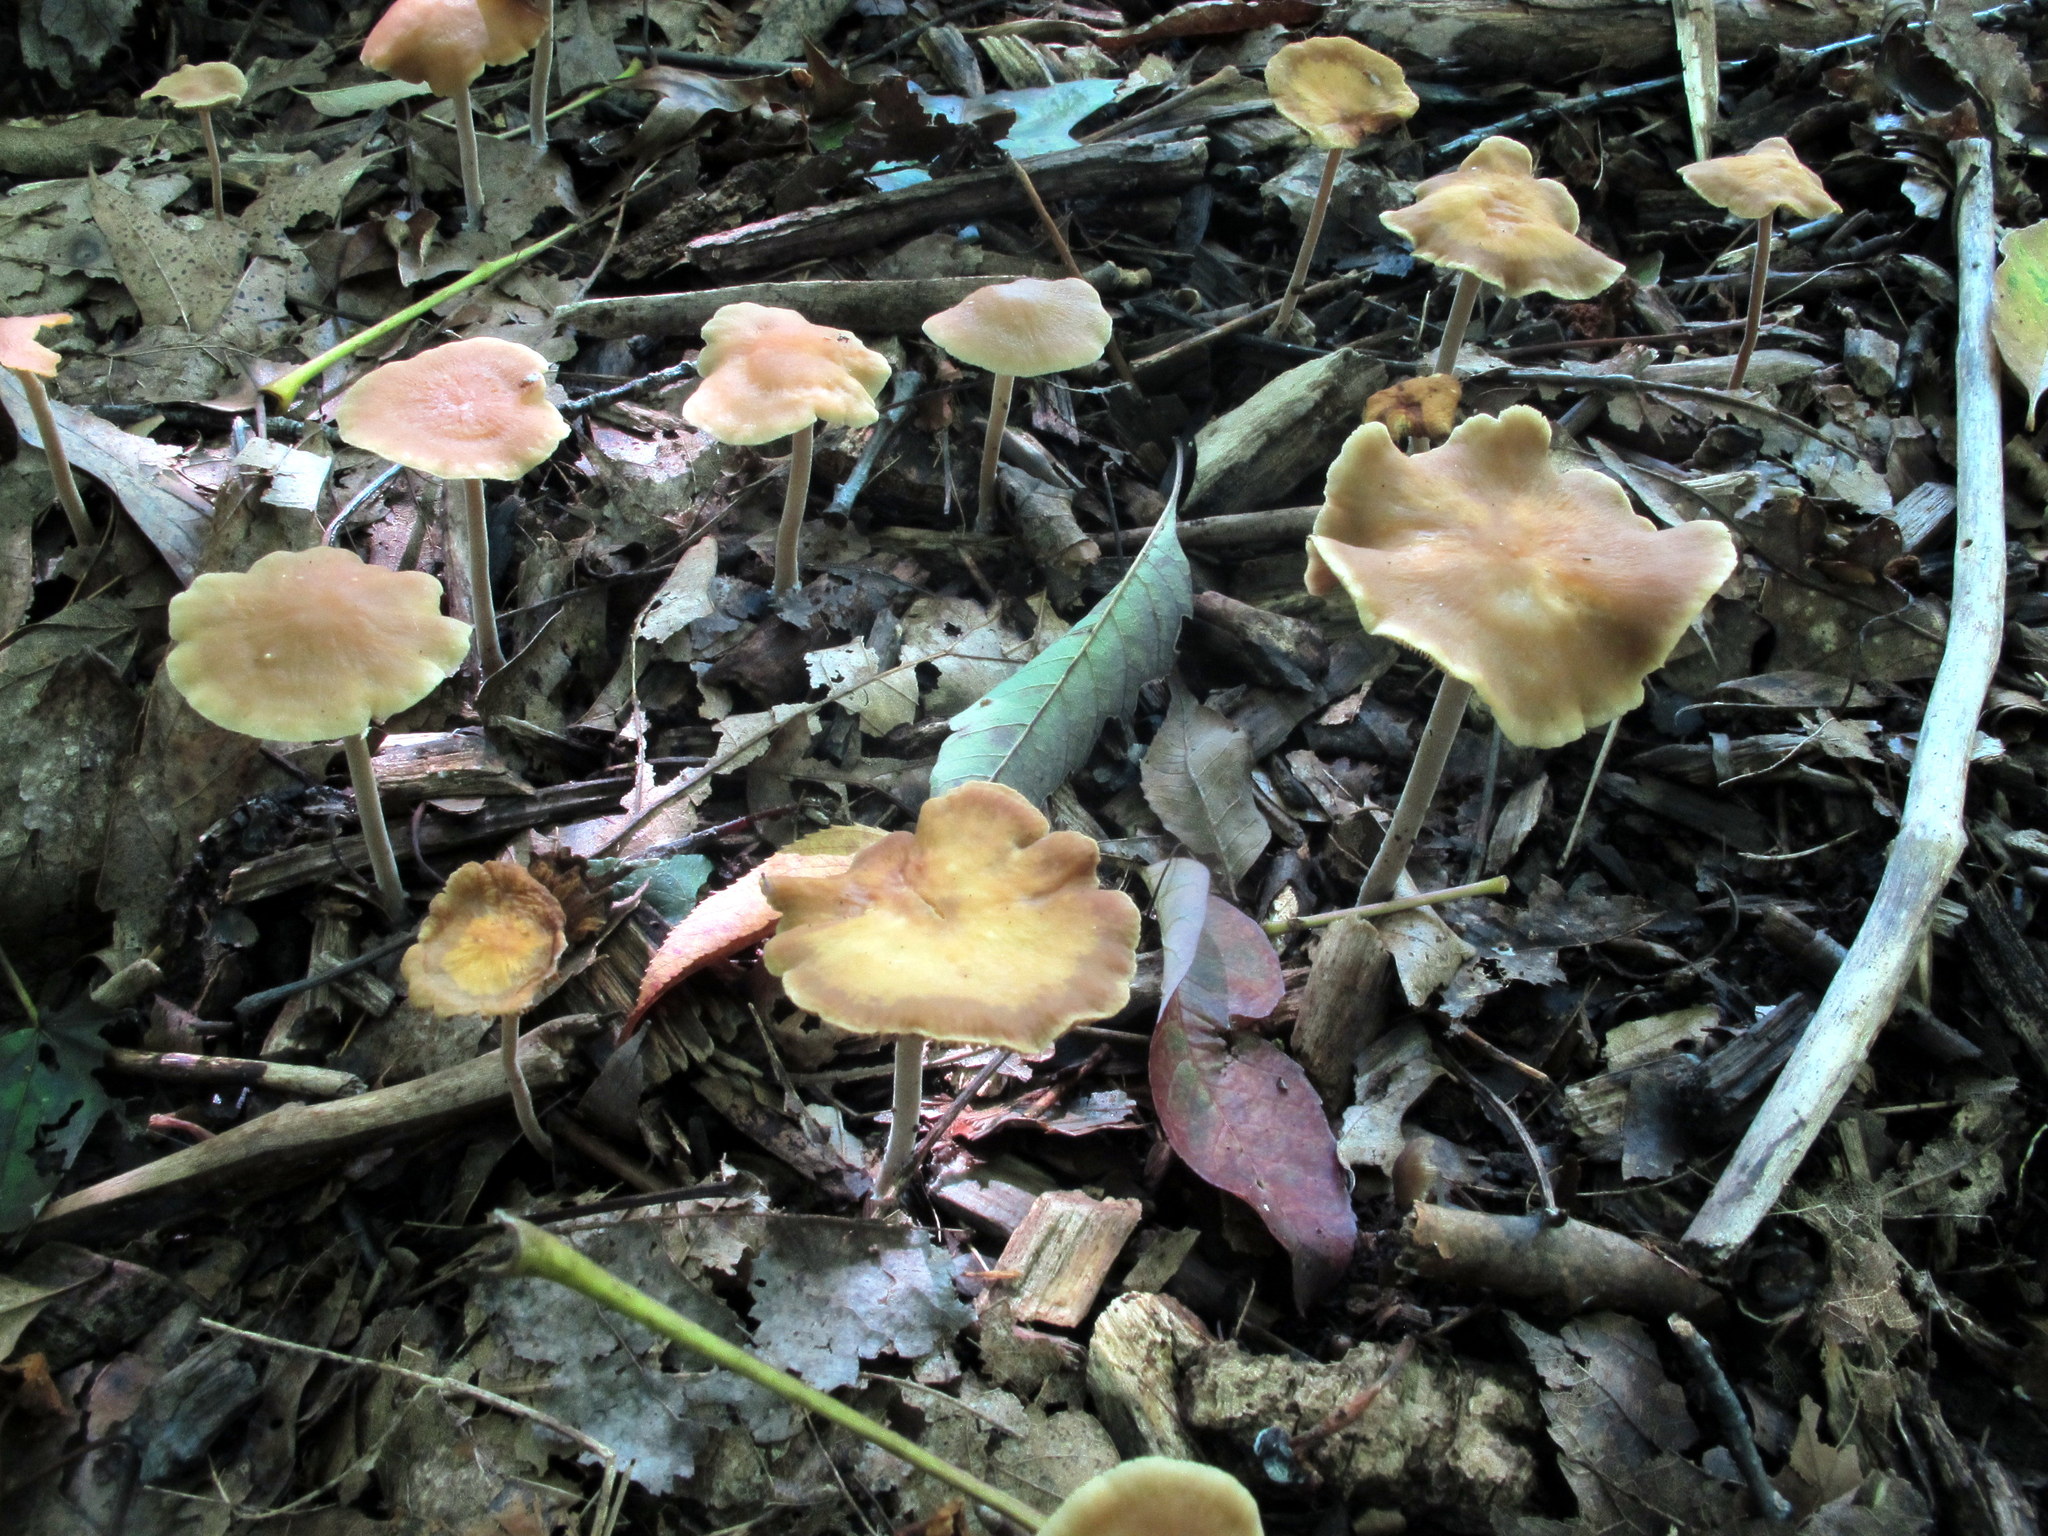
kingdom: Fungi
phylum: Basidiomycota
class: Agaricomycetes
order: Agaricales
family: Strophariaceae
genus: Agrocybe
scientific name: Agrocybe arvalis
